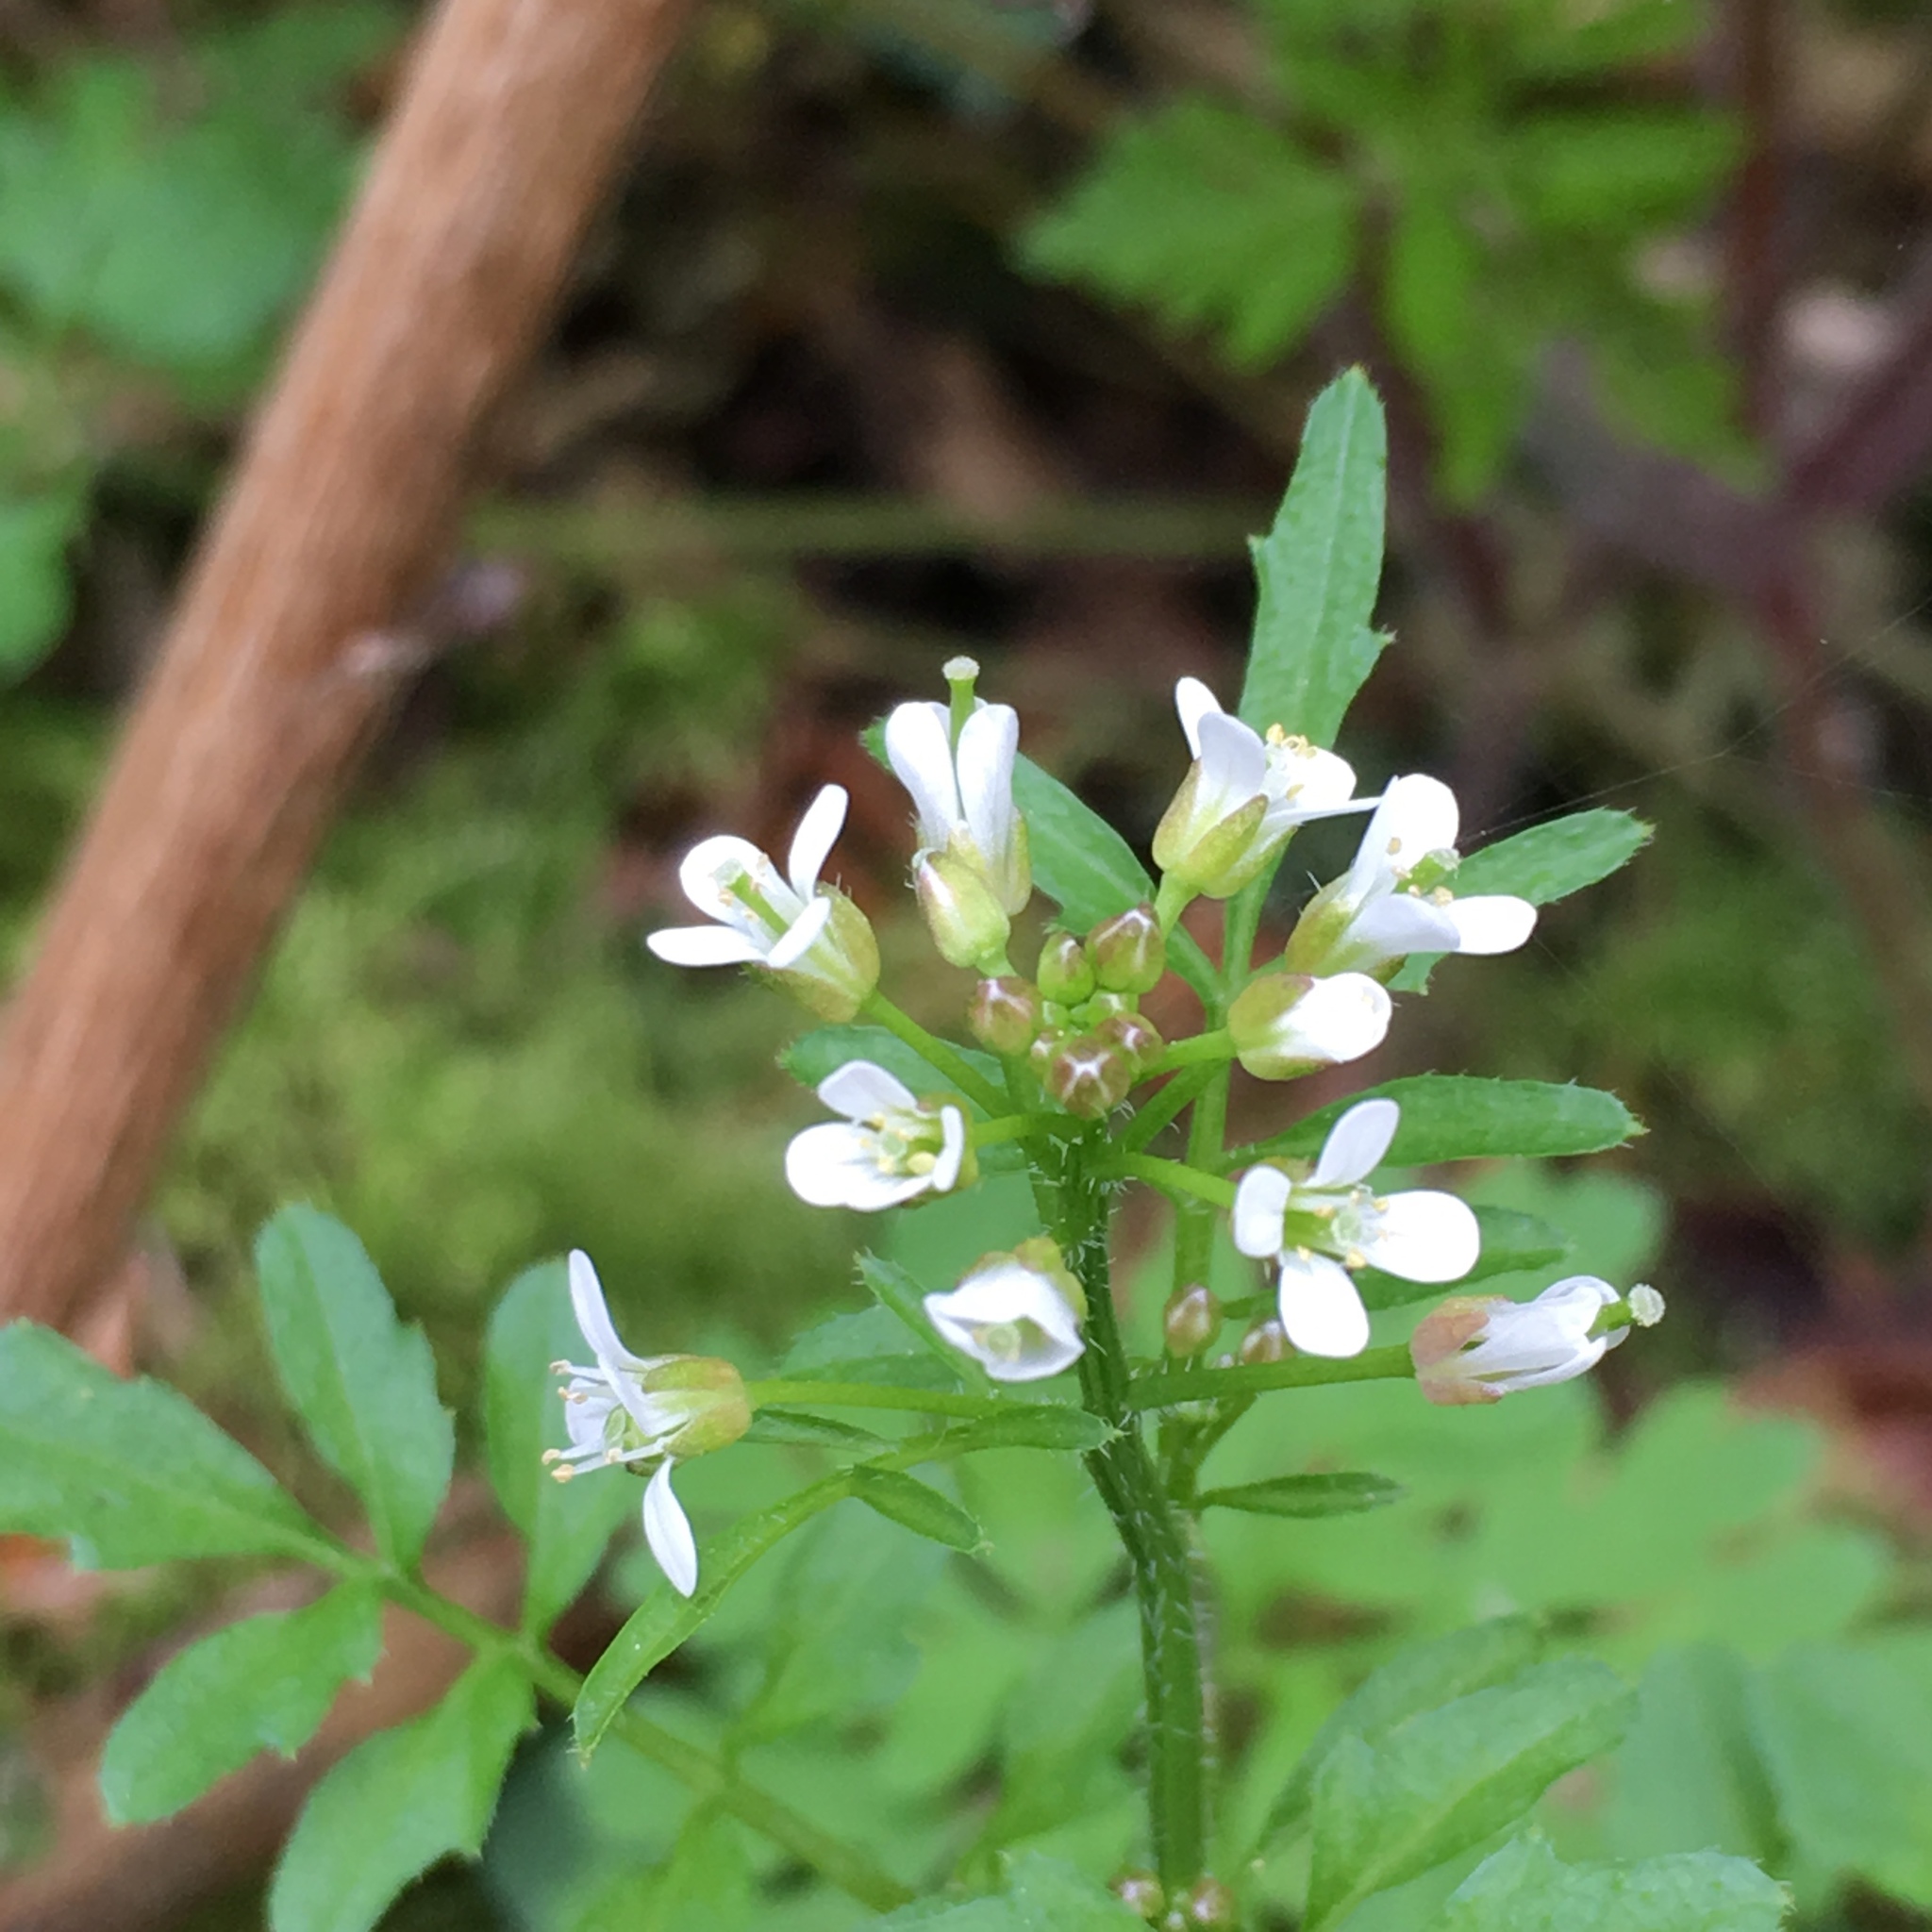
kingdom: Plantae
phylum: Tracheophyta
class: Magnoliopsida
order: Brassicales
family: Brassicaceae
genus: Cardamine
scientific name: Cardamine flexuosa
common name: Woodland bittercress
